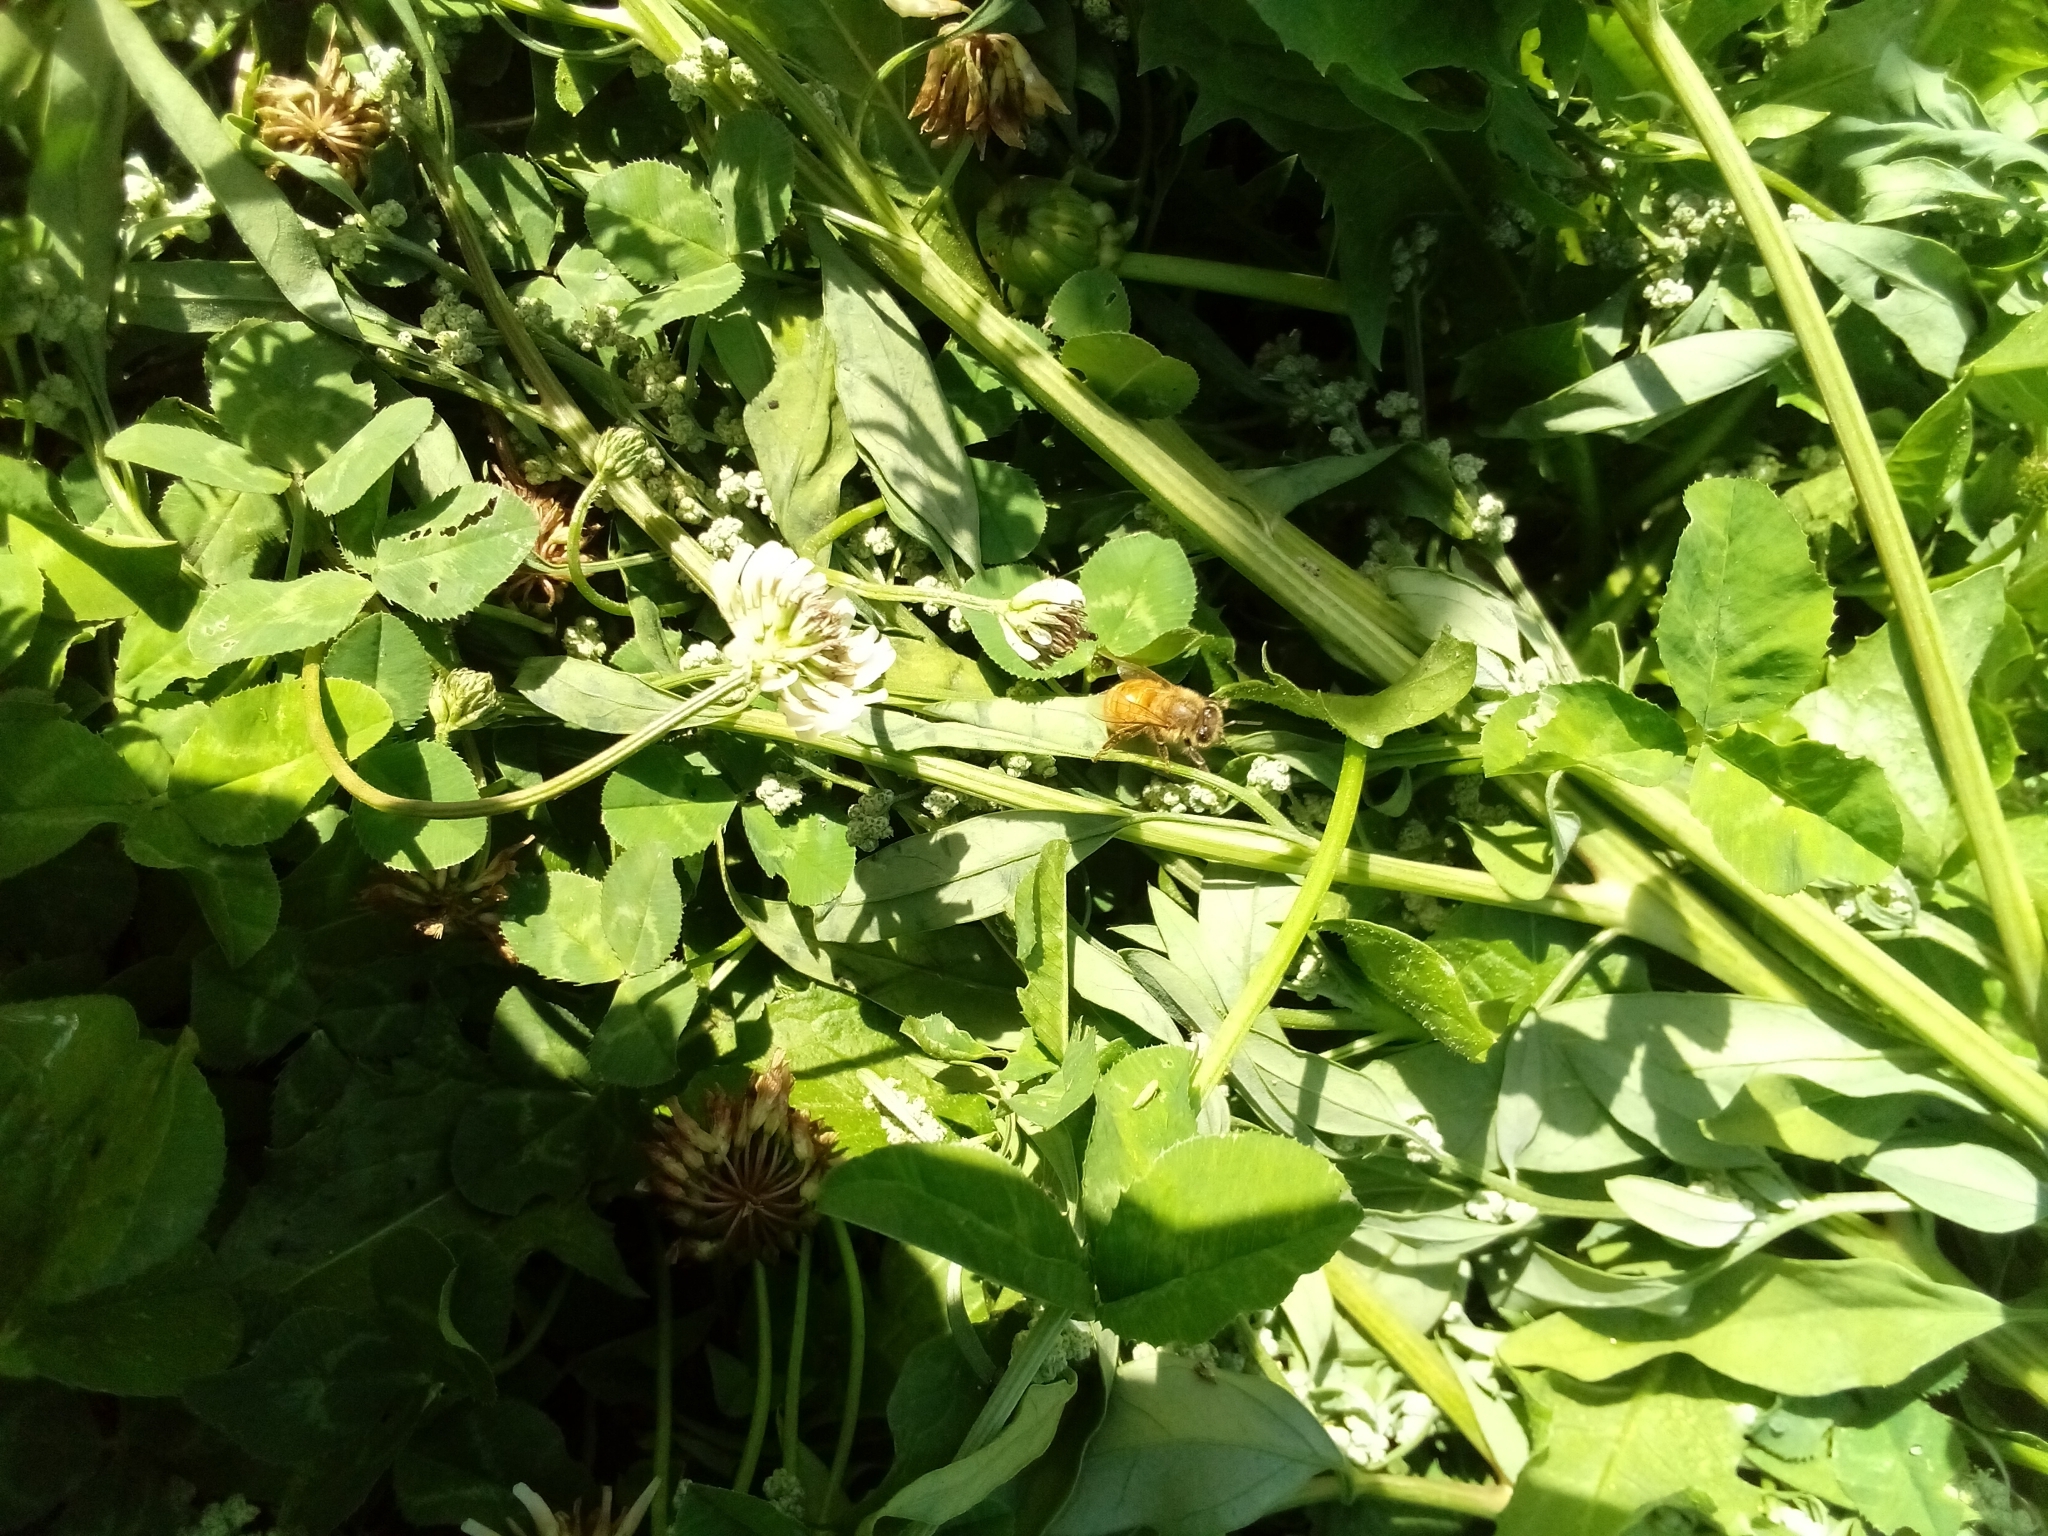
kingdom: Animalia
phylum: Arthropoda
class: Insecta
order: Hymenoptera
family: Apidae
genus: Apis
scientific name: Apis mellifera
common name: Honey bee
